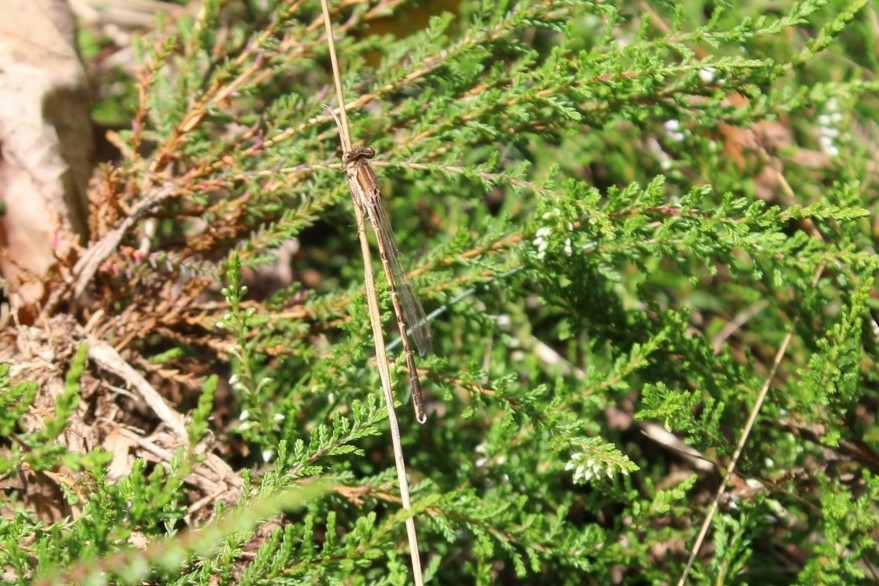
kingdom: Animalia
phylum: Arthropoda
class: Insecta
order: Odonata
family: Lestidae
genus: Sympecma
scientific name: Sympecma fusca
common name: Common winter damsel
